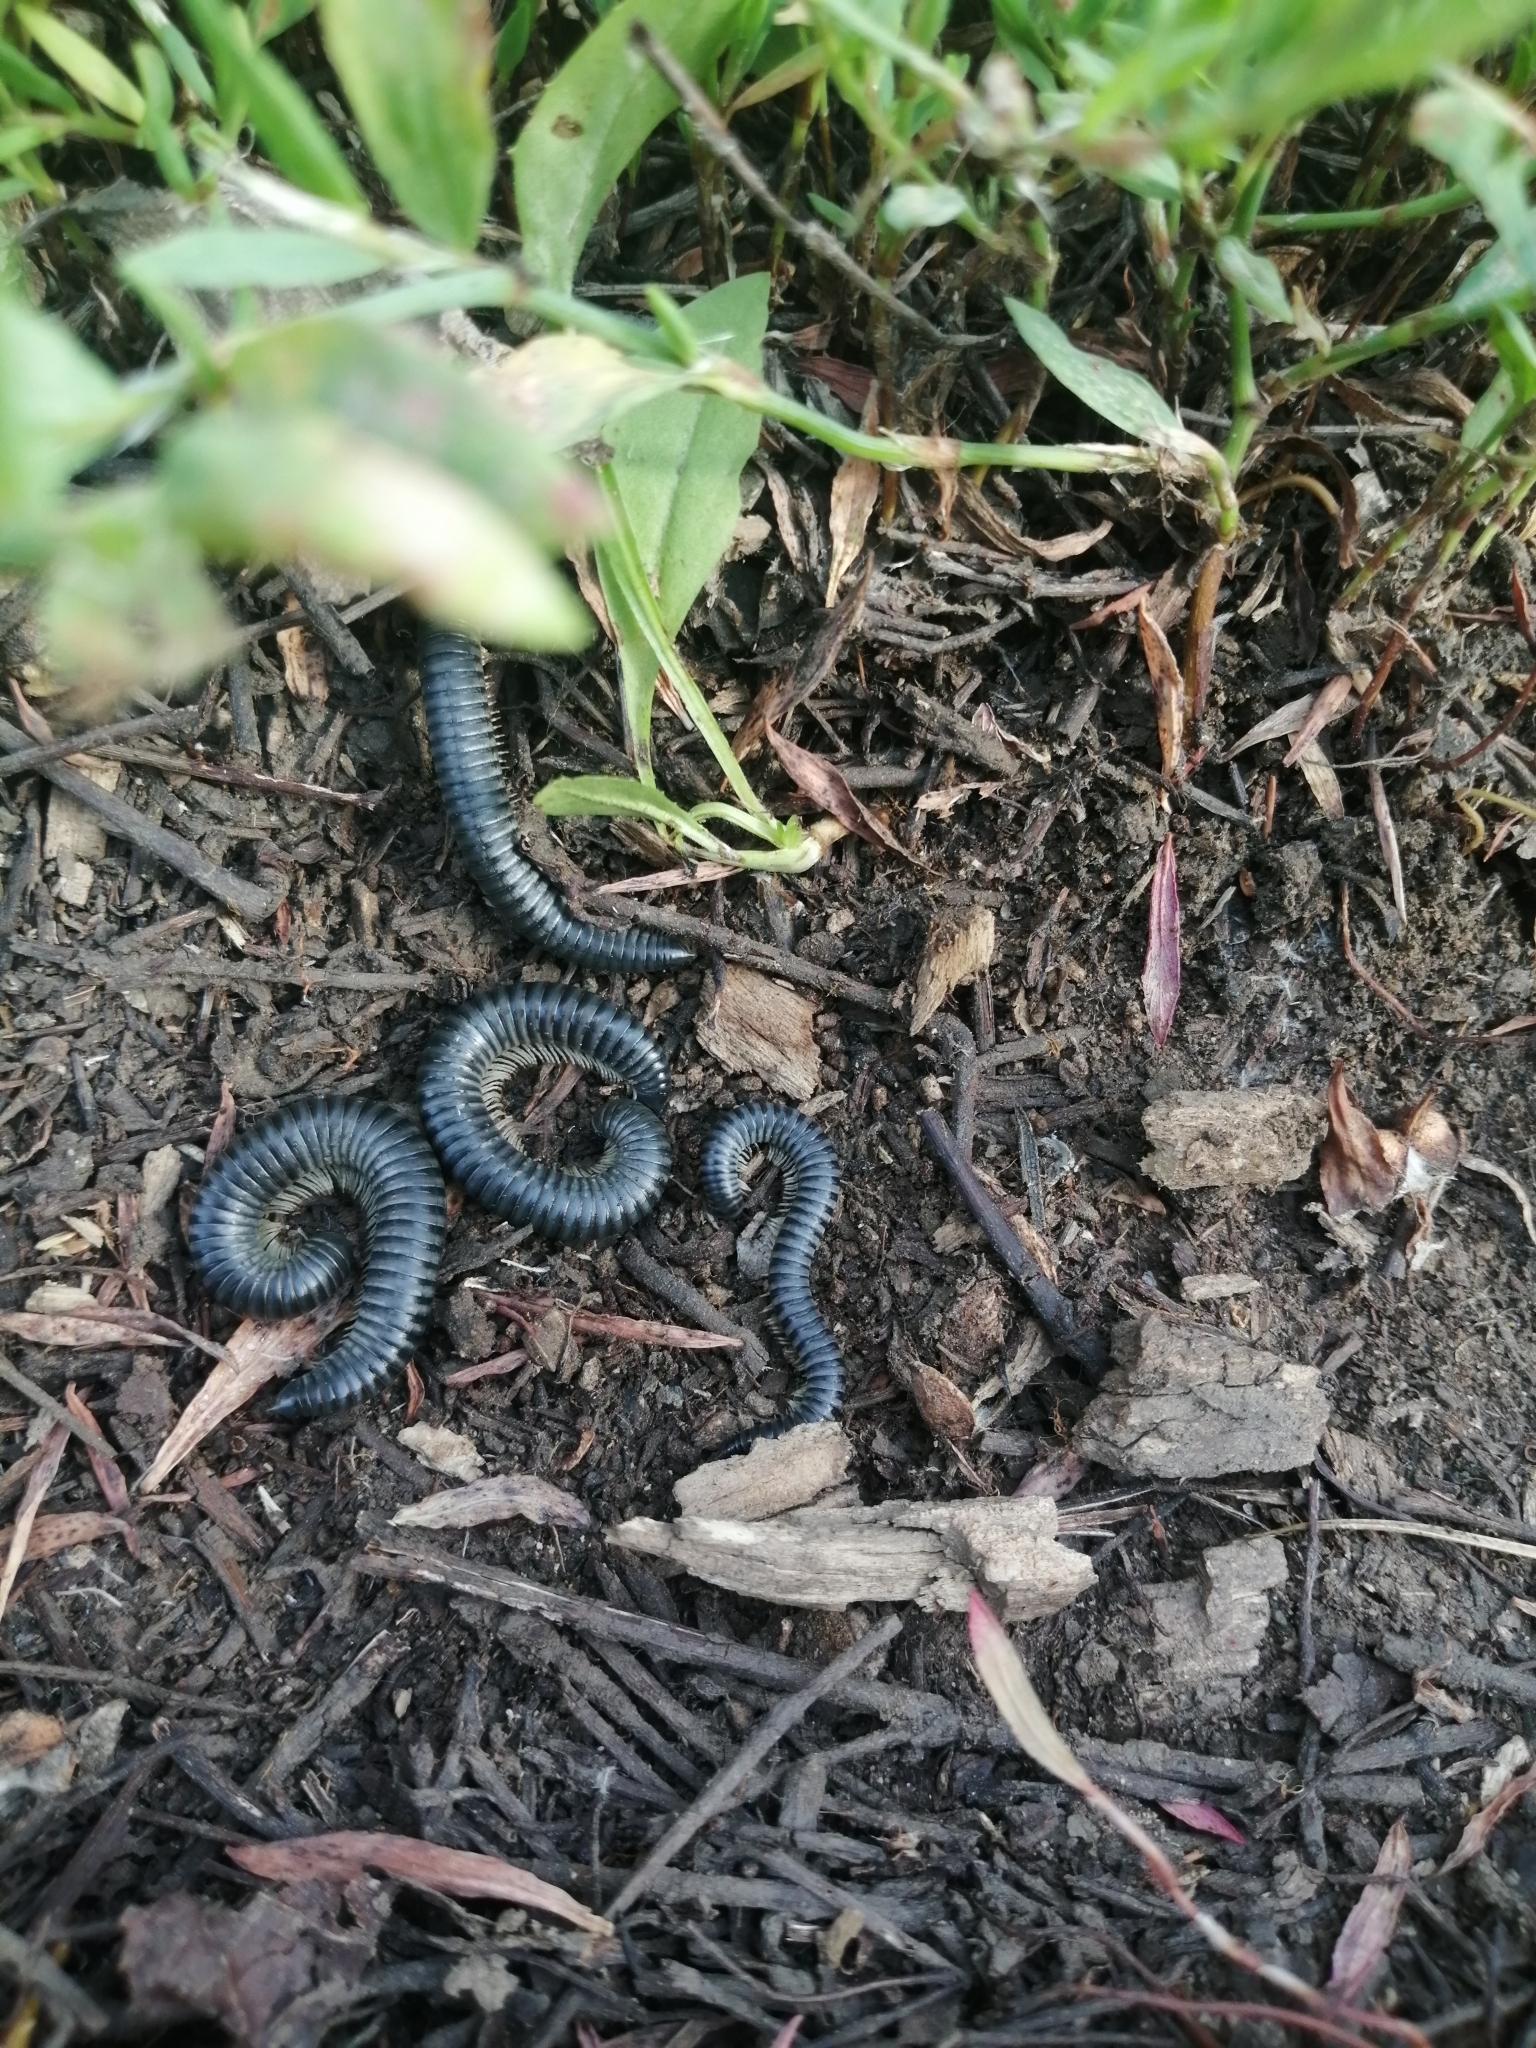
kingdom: Animalia
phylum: Arthropoda
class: Diplopoda
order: Julida
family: Julidae
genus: Rossiulus
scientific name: Rossiulus kessleri
